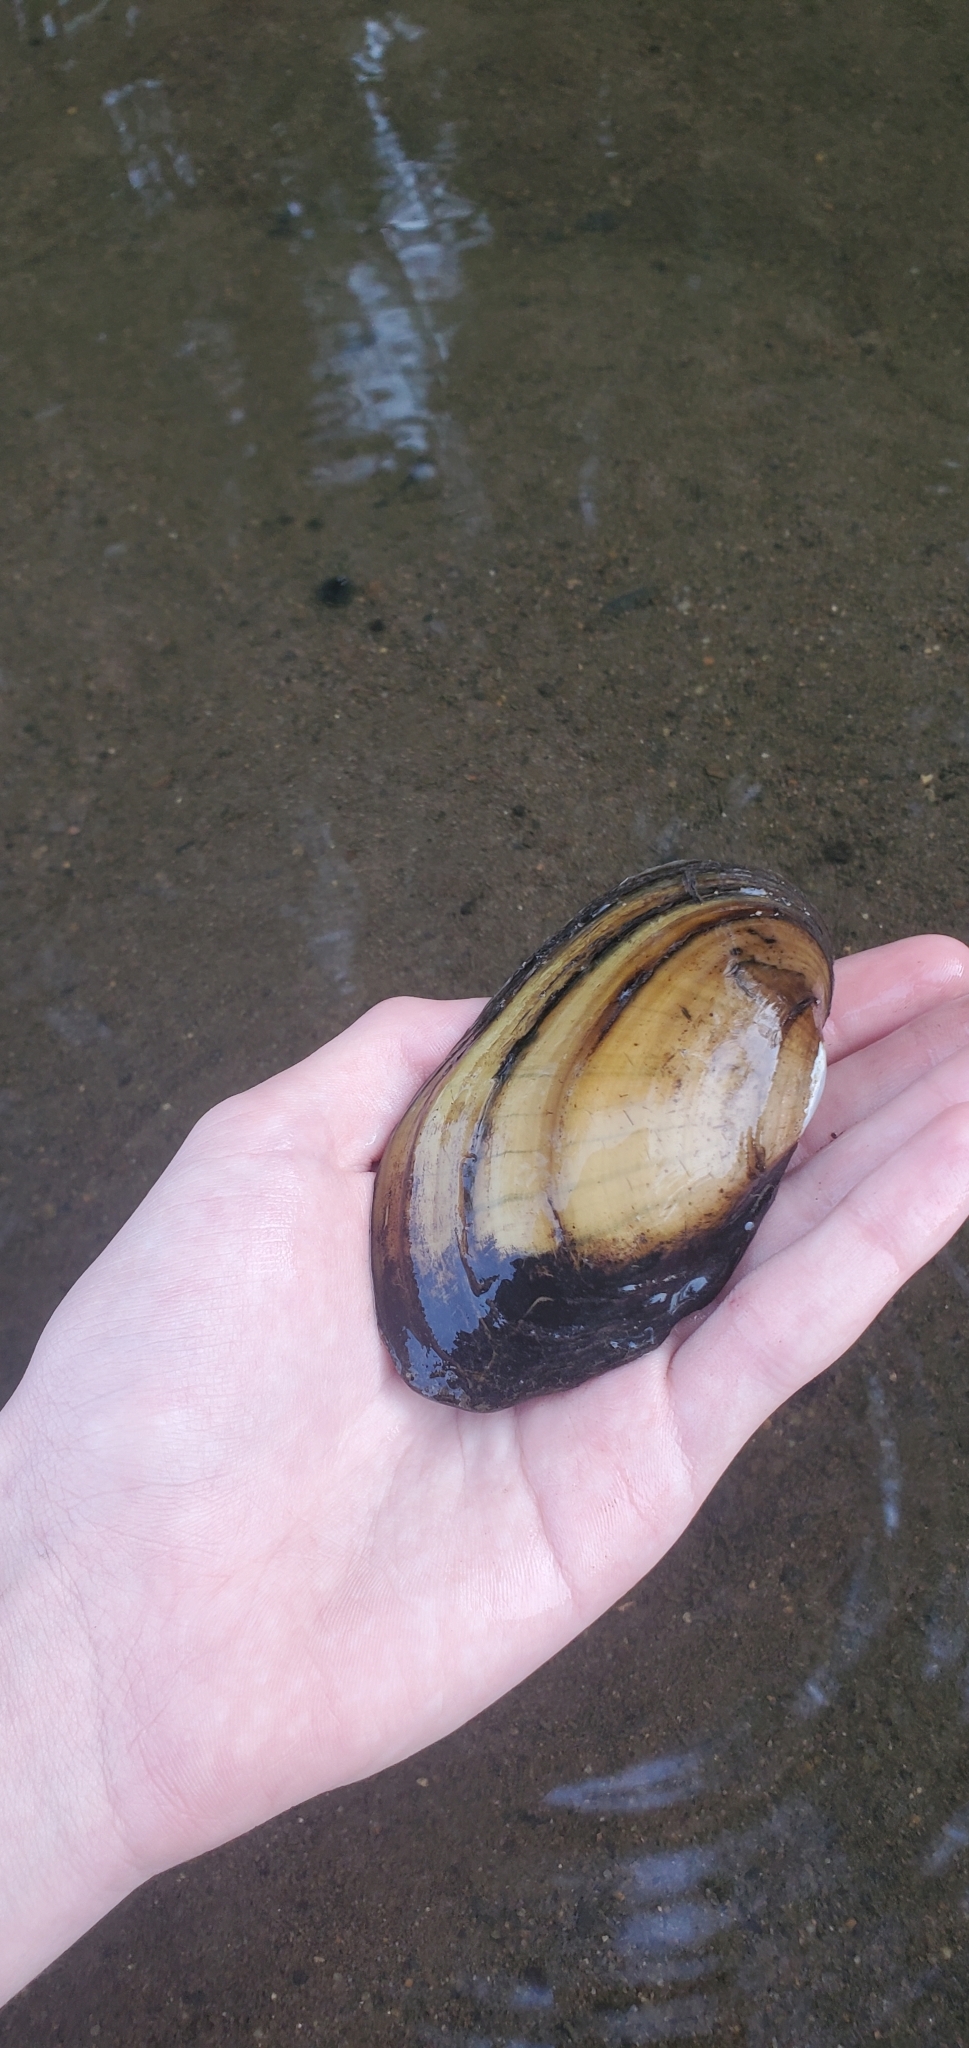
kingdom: Animalia
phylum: Mollusca
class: Bivalvia
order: Unionida
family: Unionidae
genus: Lampsilis
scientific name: Lampsilis siliquoidea
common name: Fatmucket
